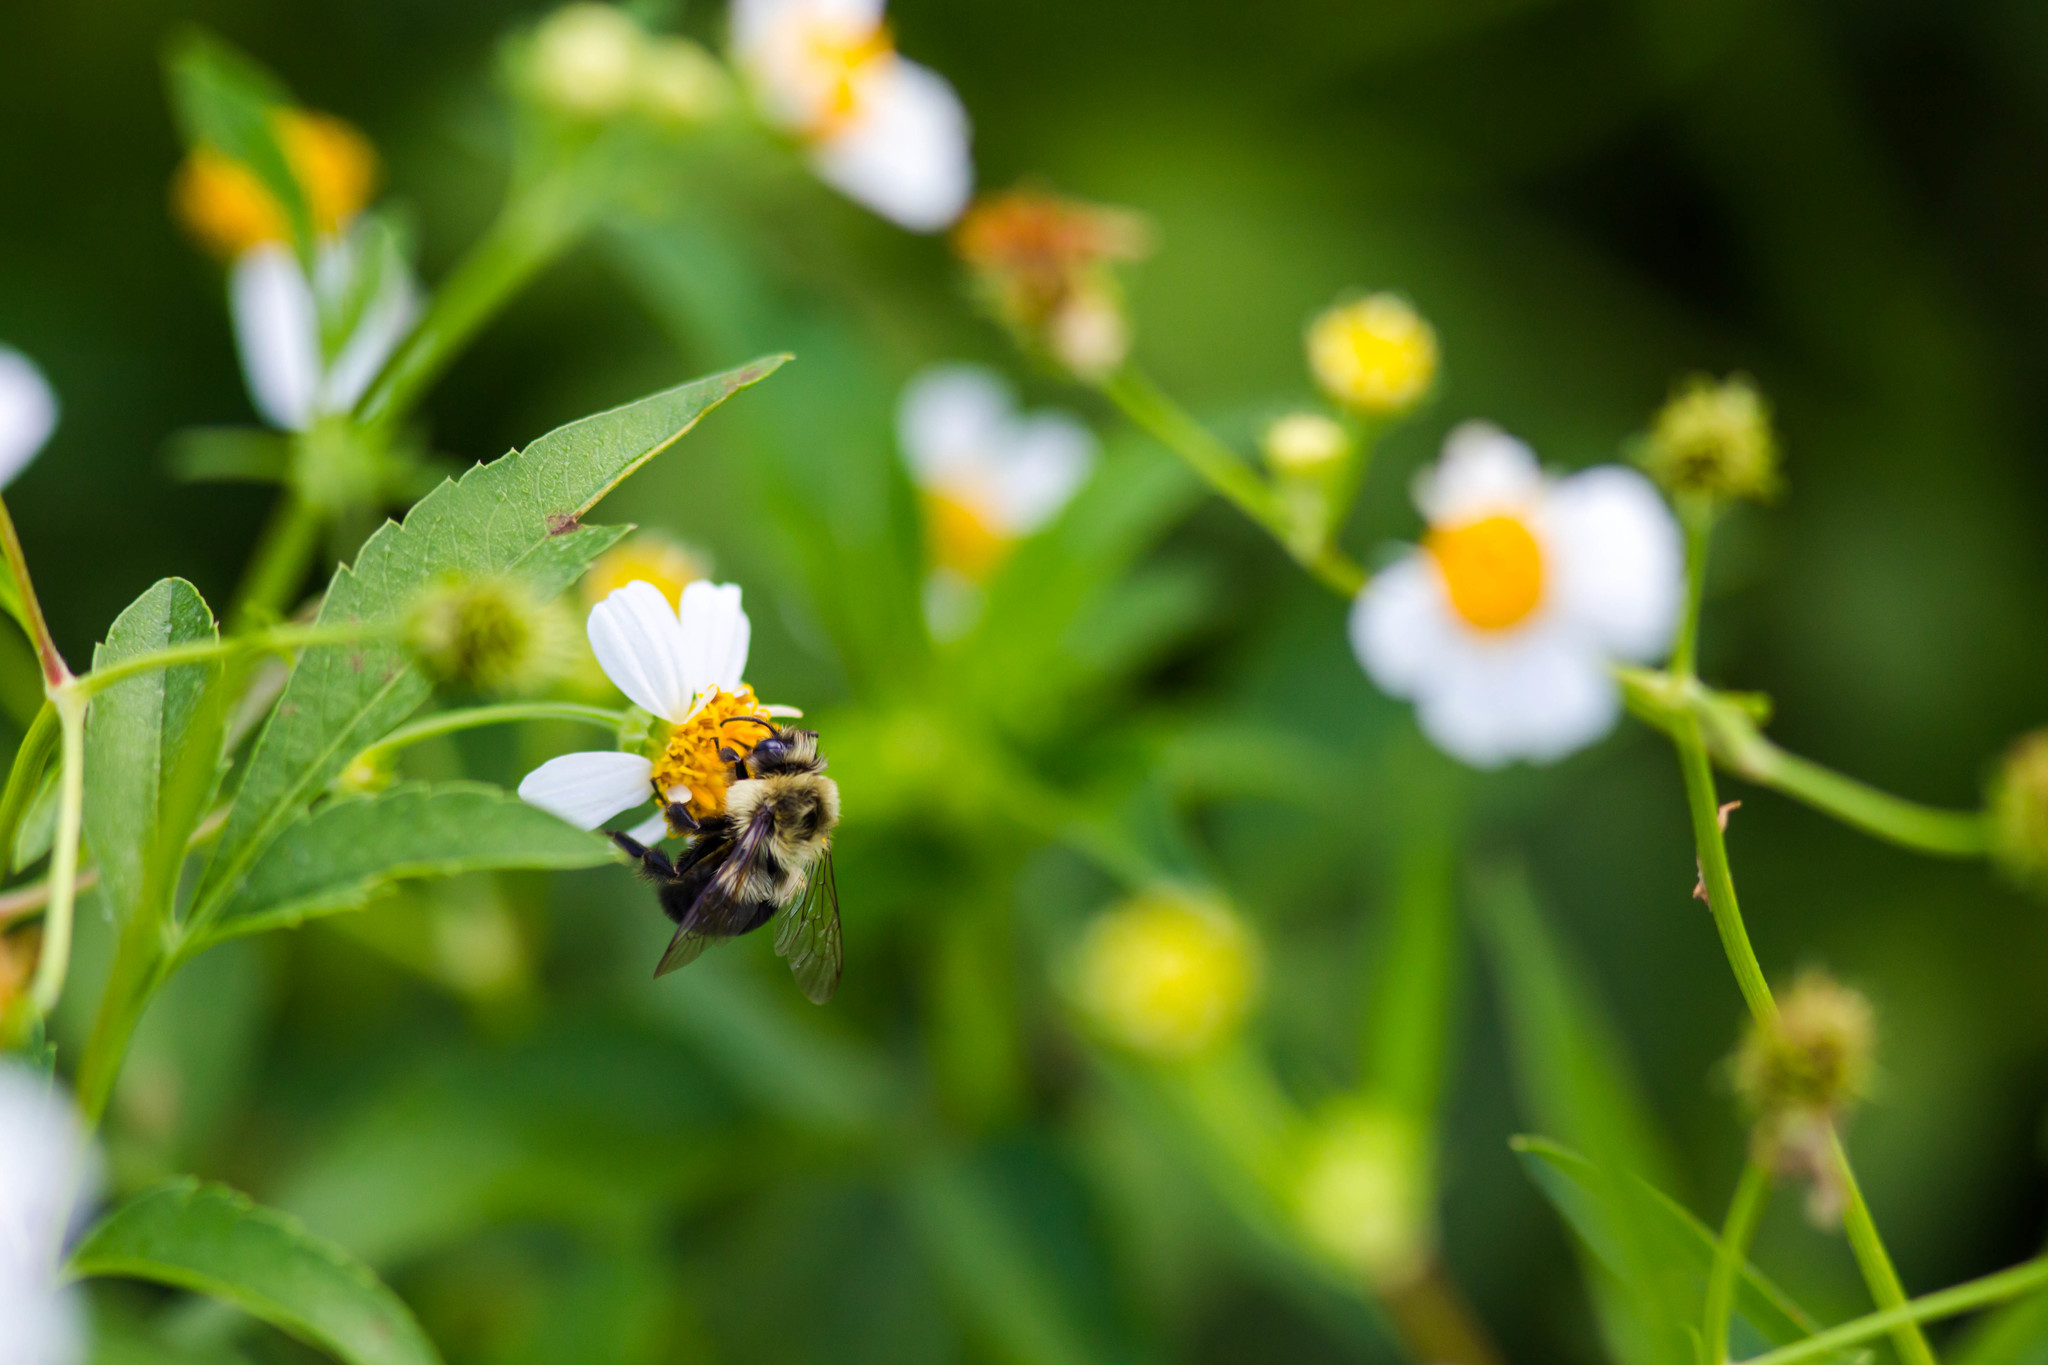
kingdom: Animalia
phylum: Arthropoda
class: Insecta
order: Hymenoptera
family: Apidae
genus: Bombus
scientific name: Bombus impatiens
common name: Common eastern bumble bee
